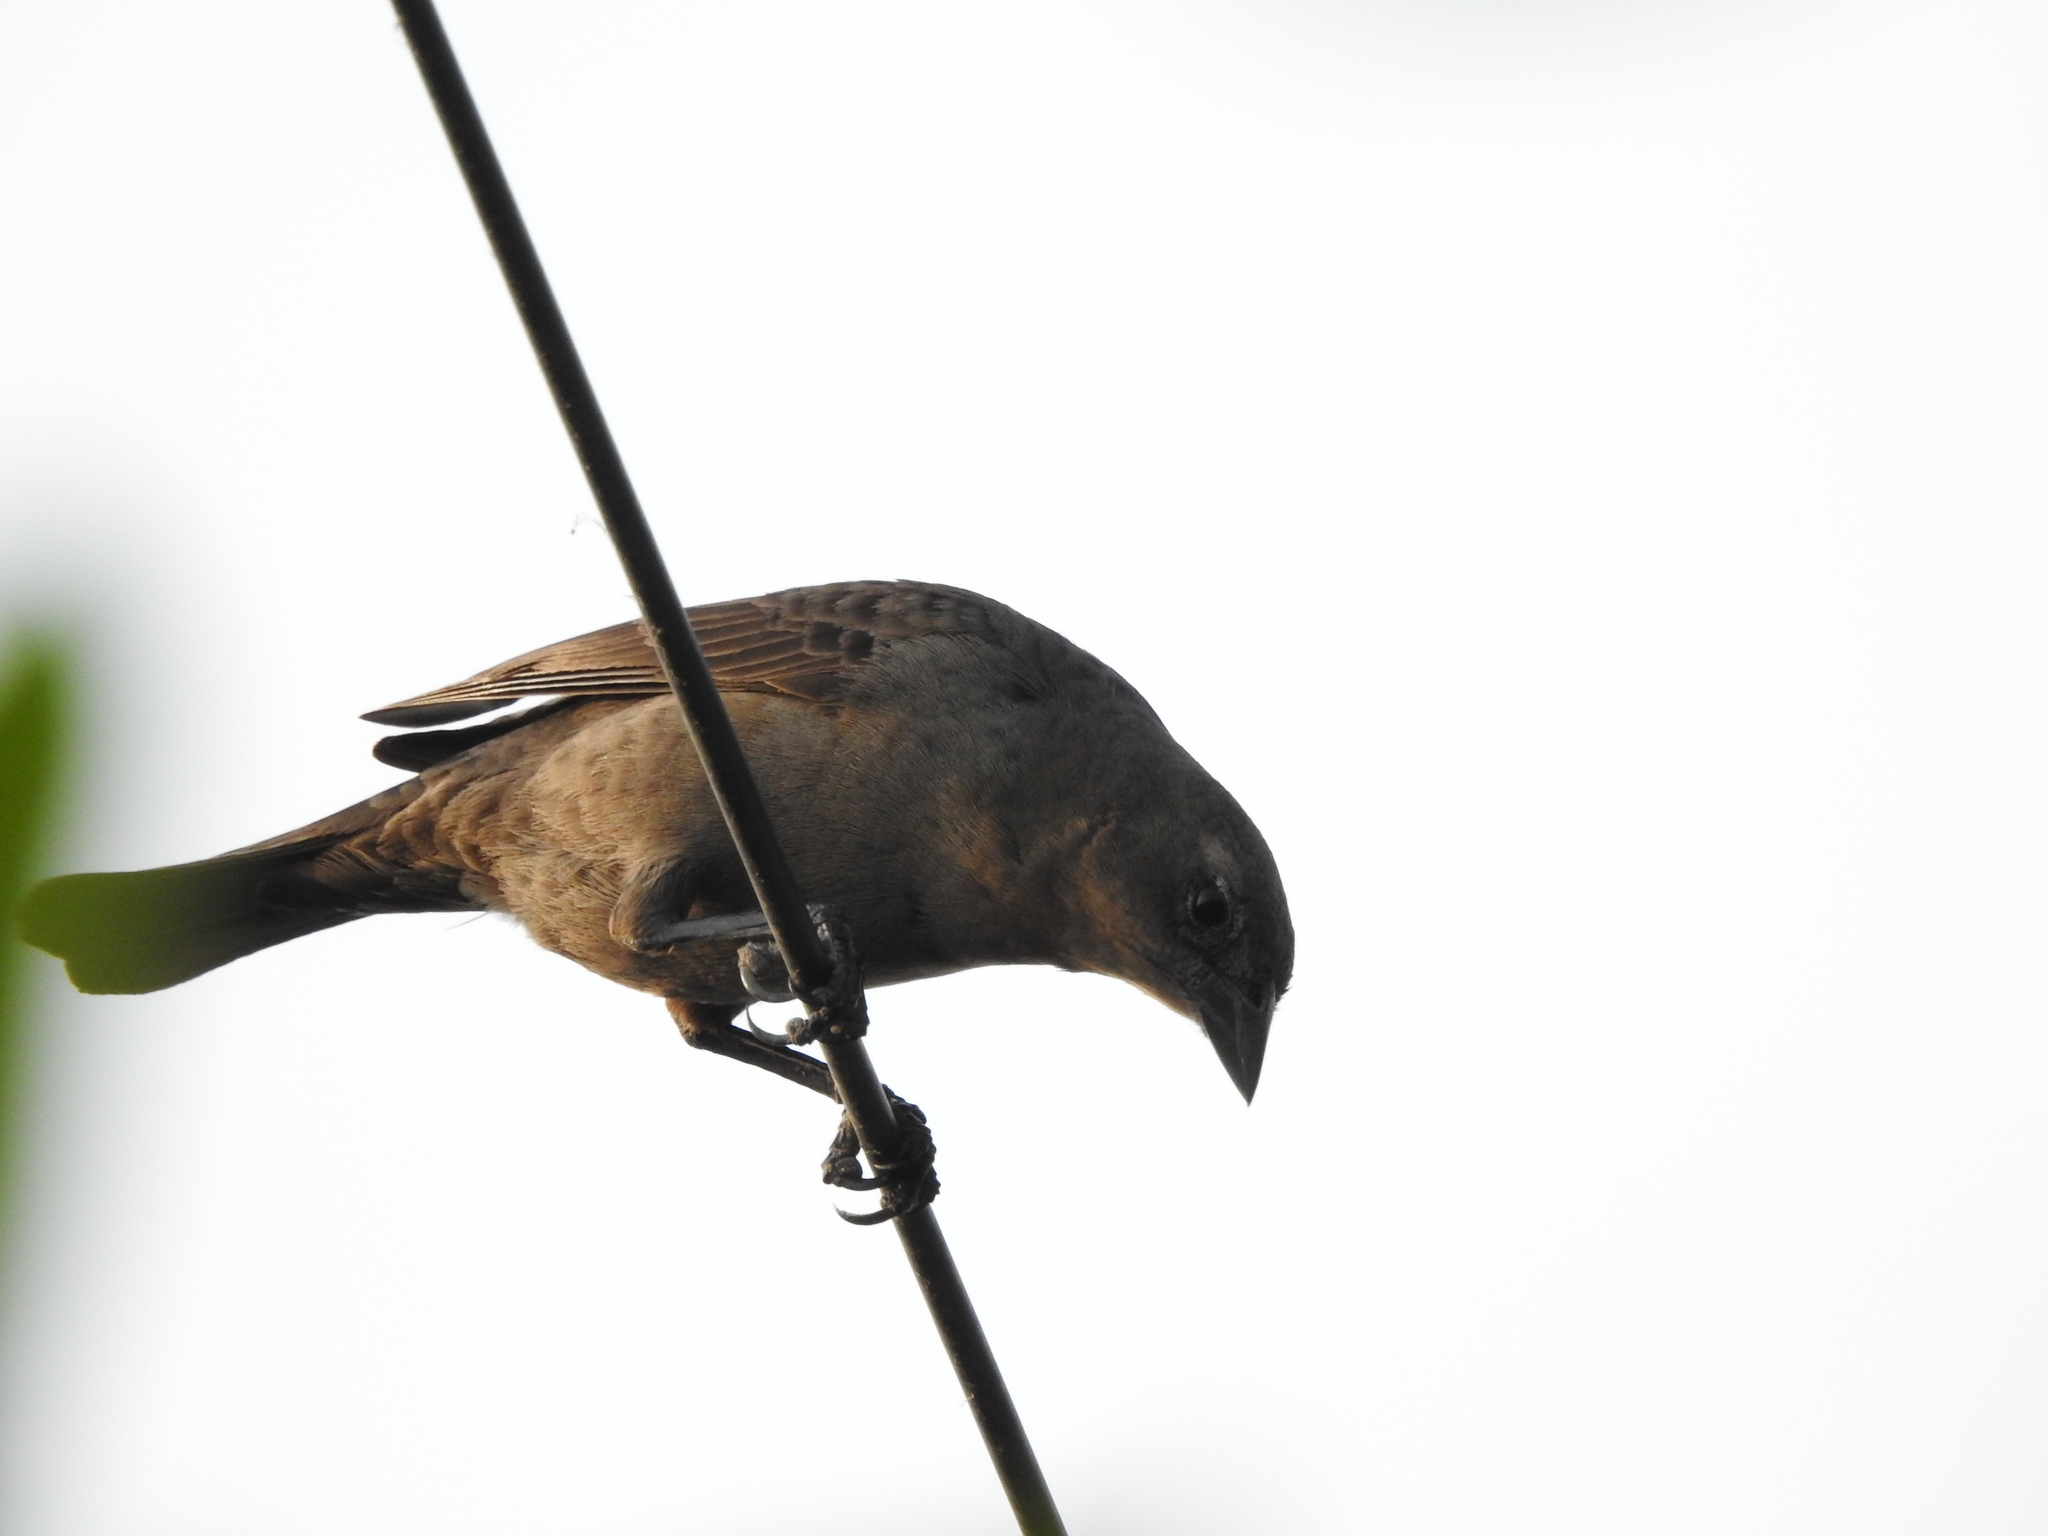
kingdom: Animalia
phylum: Chordata
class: Aves
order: Passeriformes
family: Icteridae
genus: Molothrus
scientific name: Molothrus bonariensis
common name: Shiny cowbird
